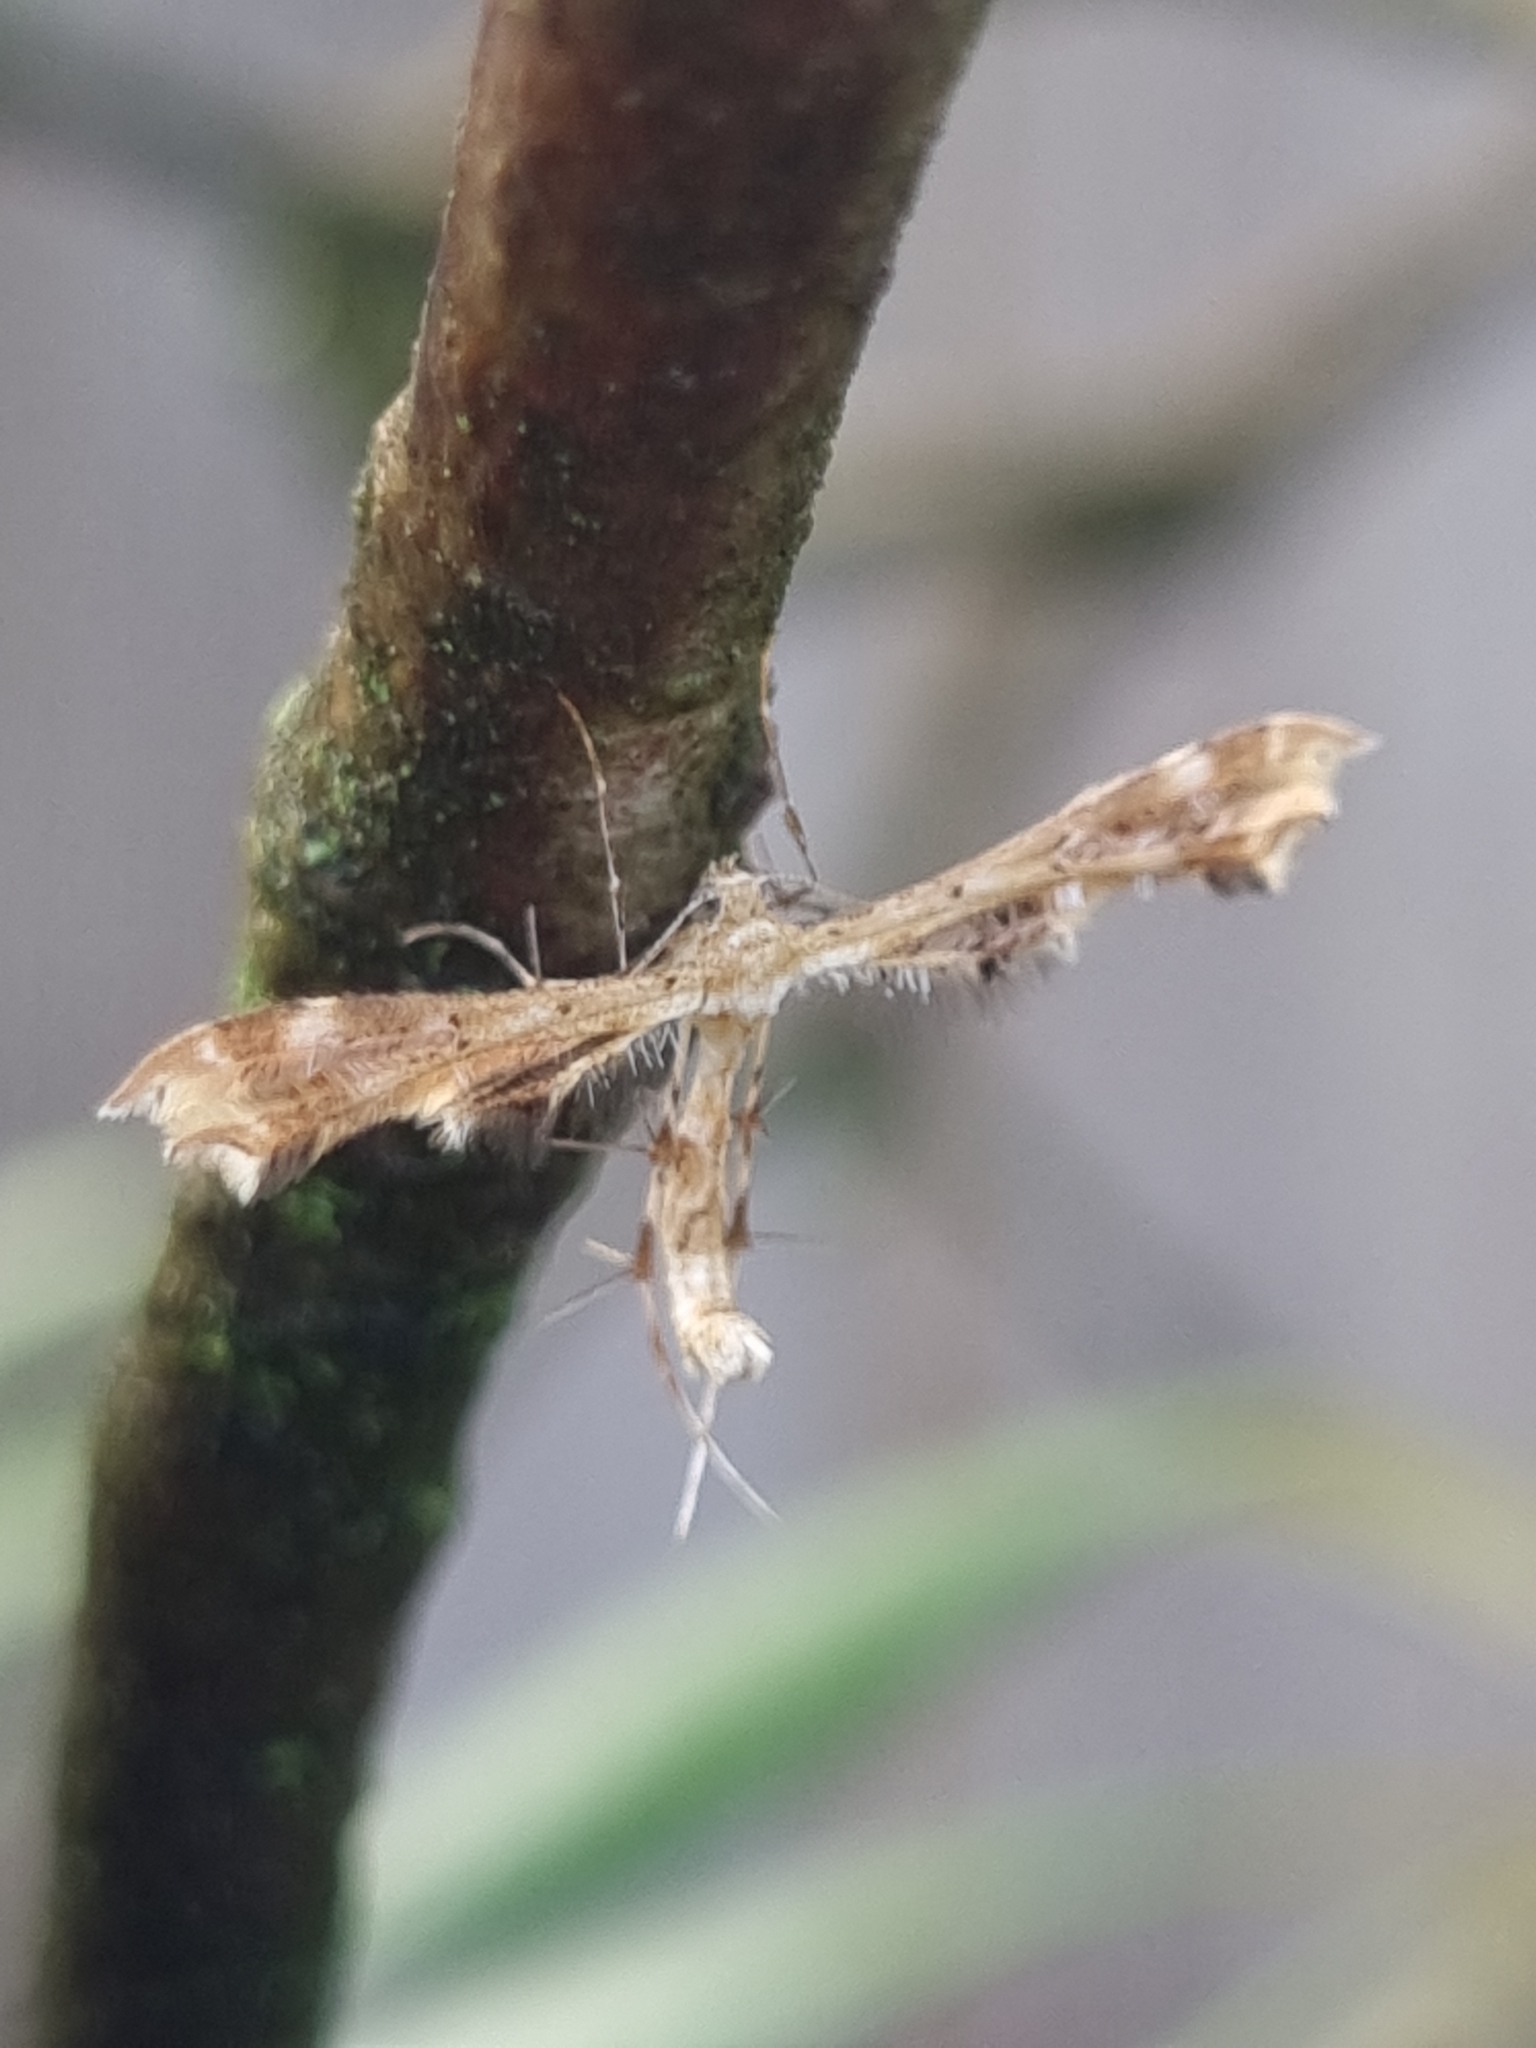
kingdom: Animalia
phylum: Arthropoda
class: Insecta
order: Lepidoptera
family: Pterophoridae
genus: Sphenarches
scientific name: Sphenarches anisodactylus
